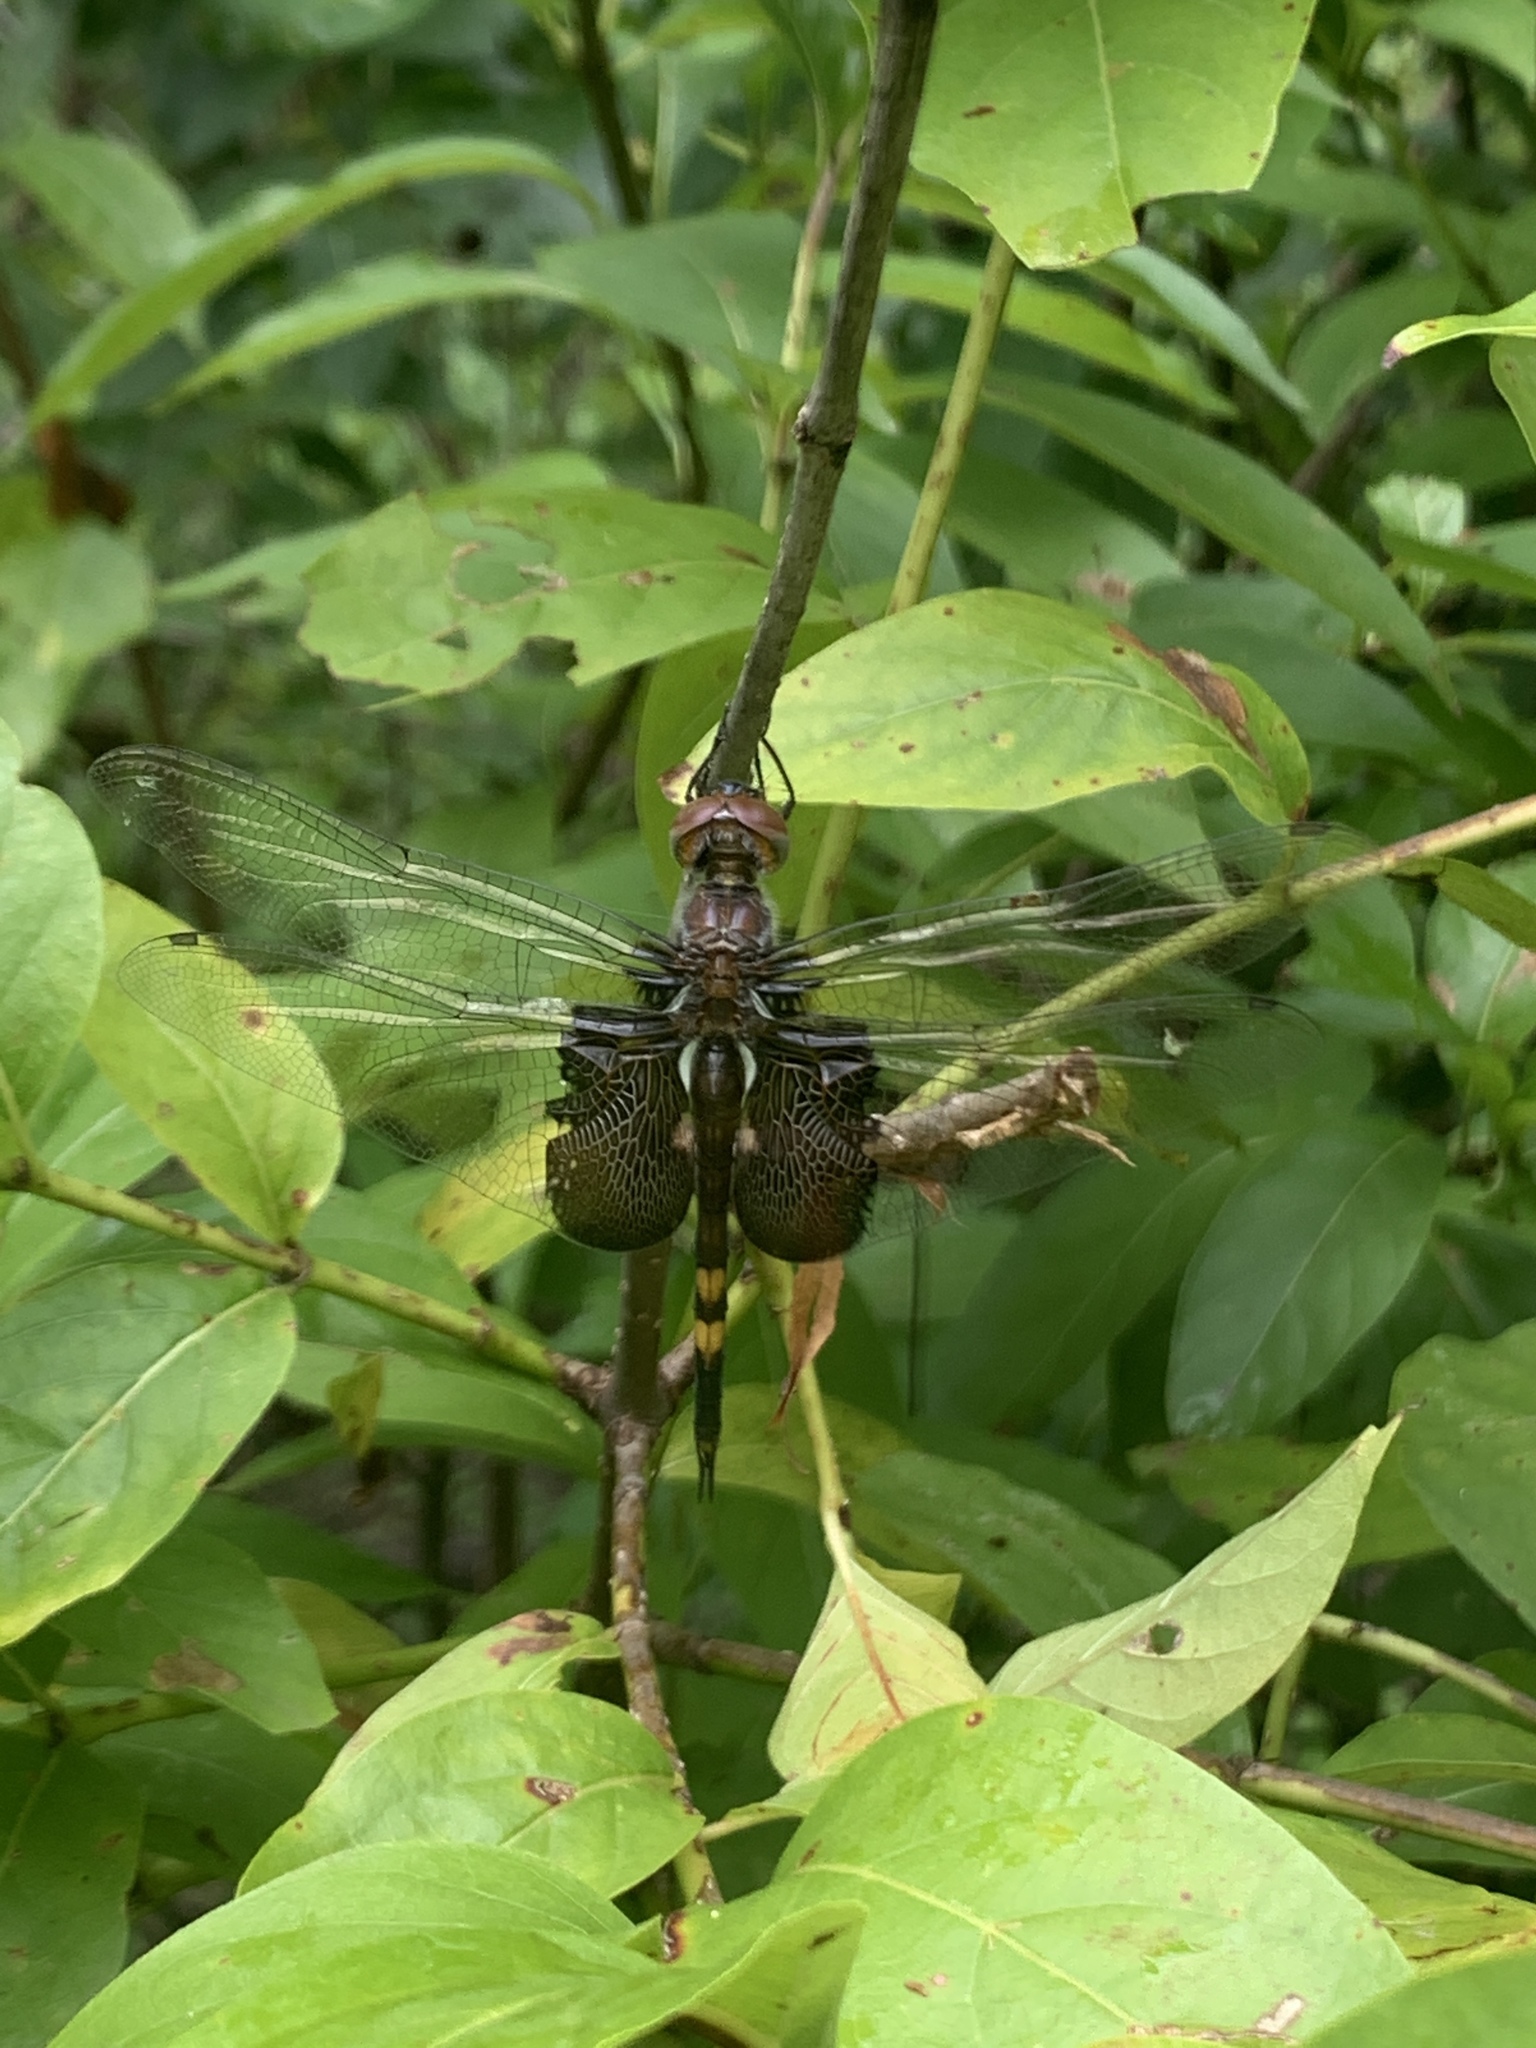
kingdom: Animalia
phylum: Arthropoda
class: Insecta
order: Odonata
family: Libellulidae
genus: Tramea
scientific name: Tramea lacerata
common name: Black saddlebags
